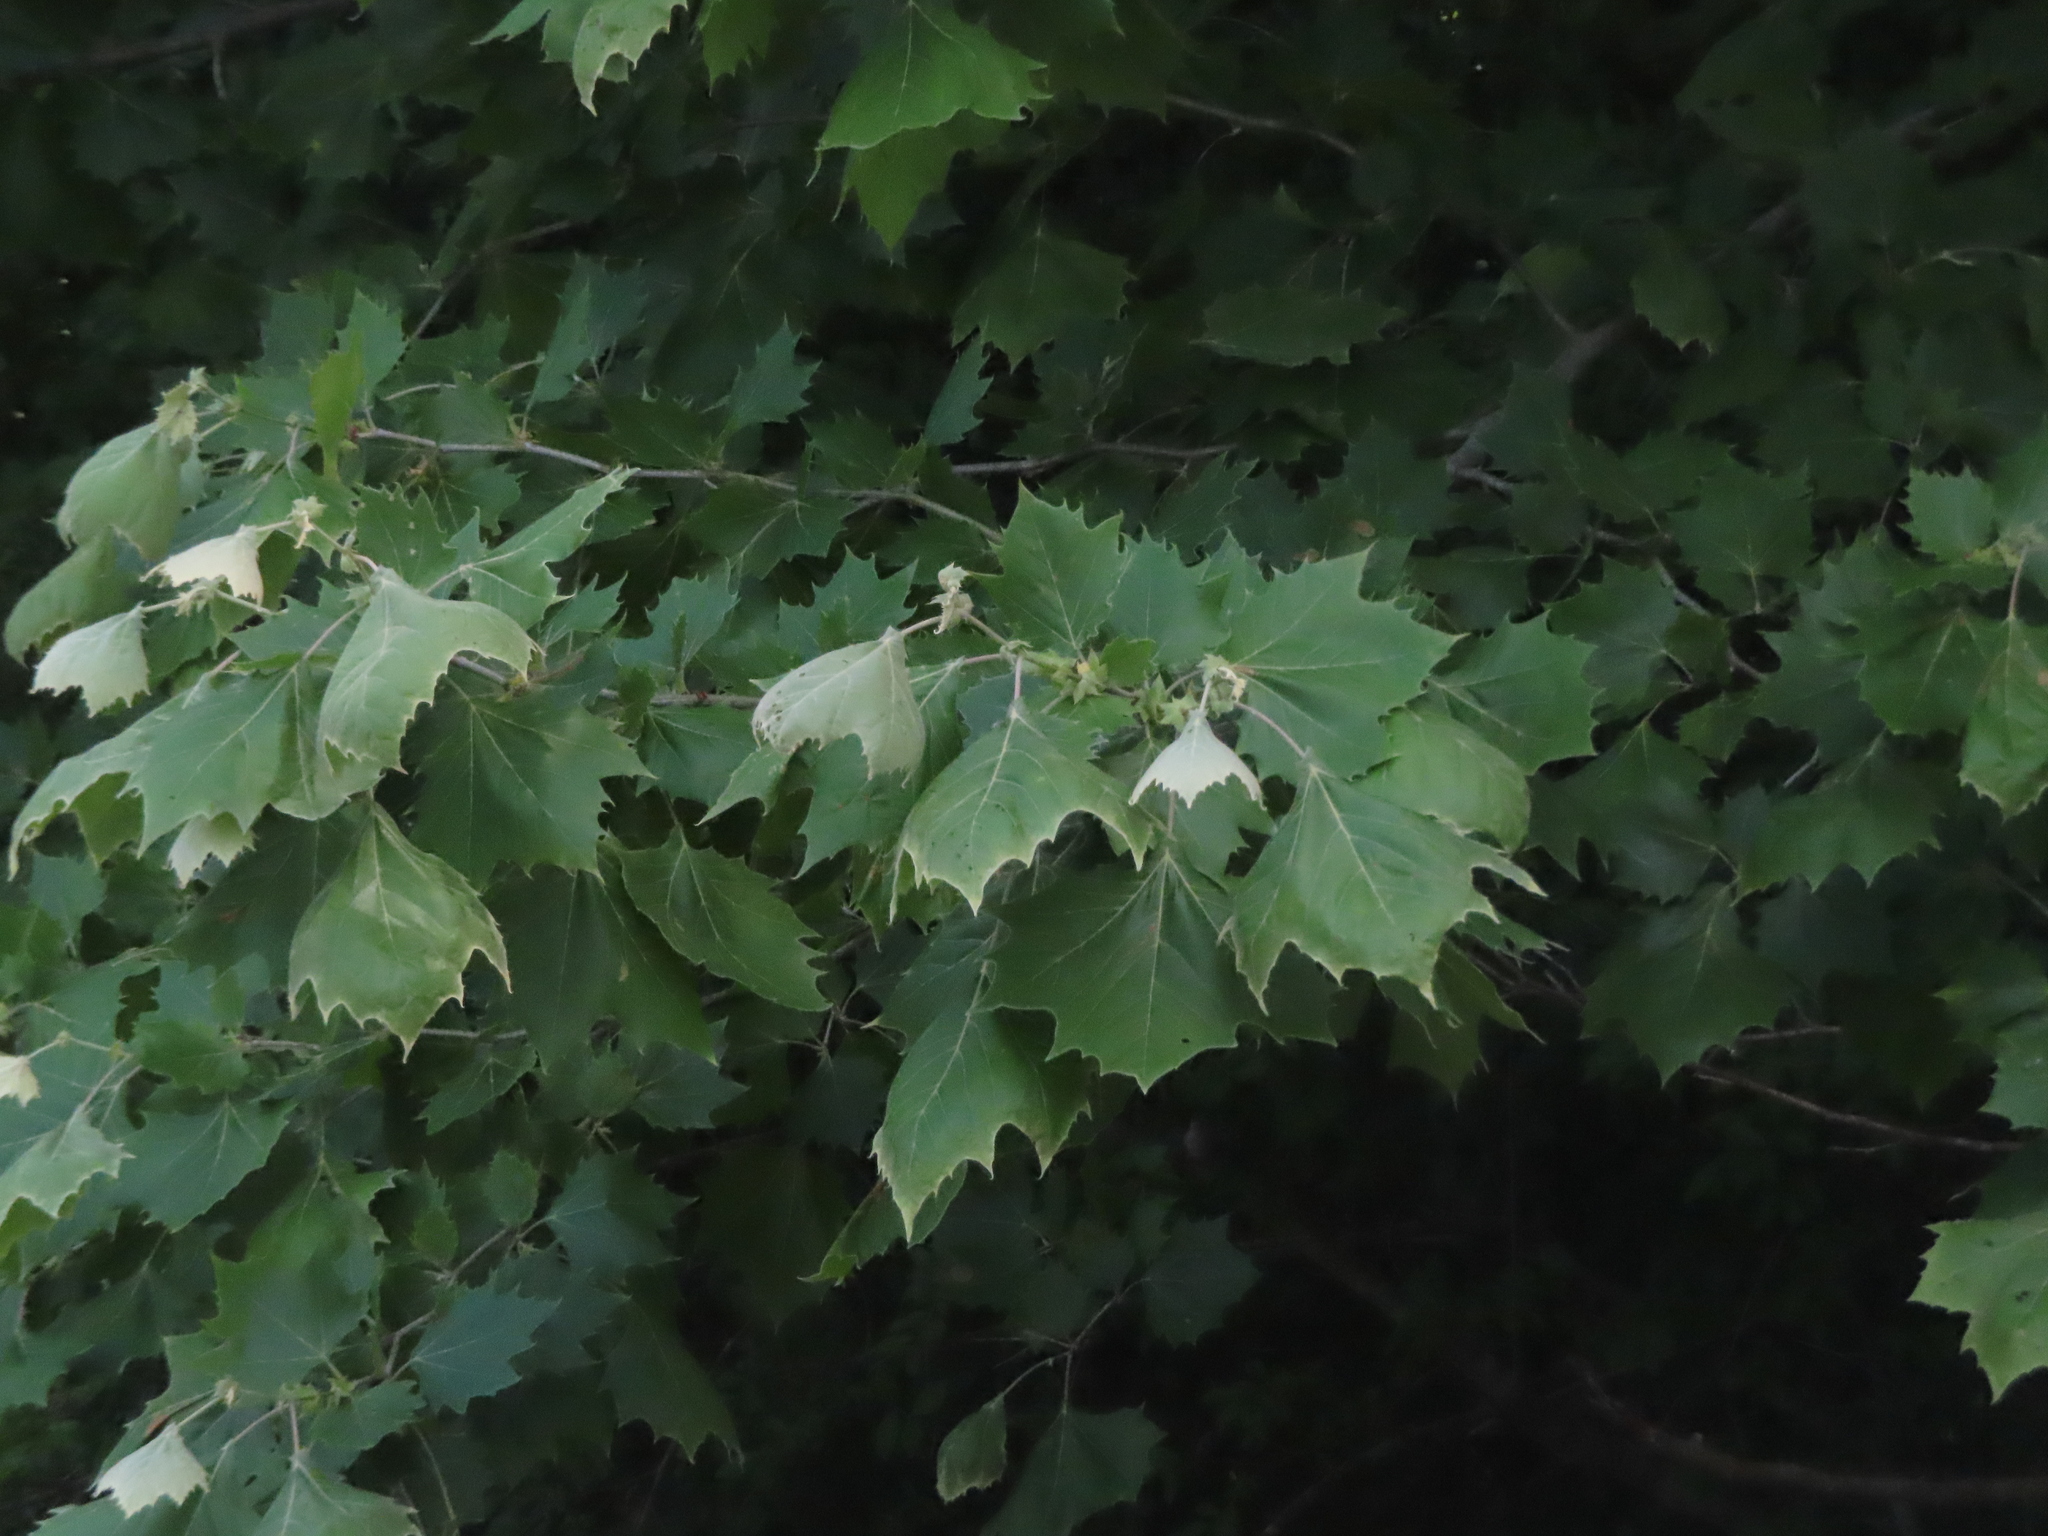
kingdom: Plantae
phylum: Tracheophyta
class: Magnoliopsida
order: Proteales
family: Platanaceae
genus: Platanus
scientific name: Platanus occidentalis
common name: American sycamore
